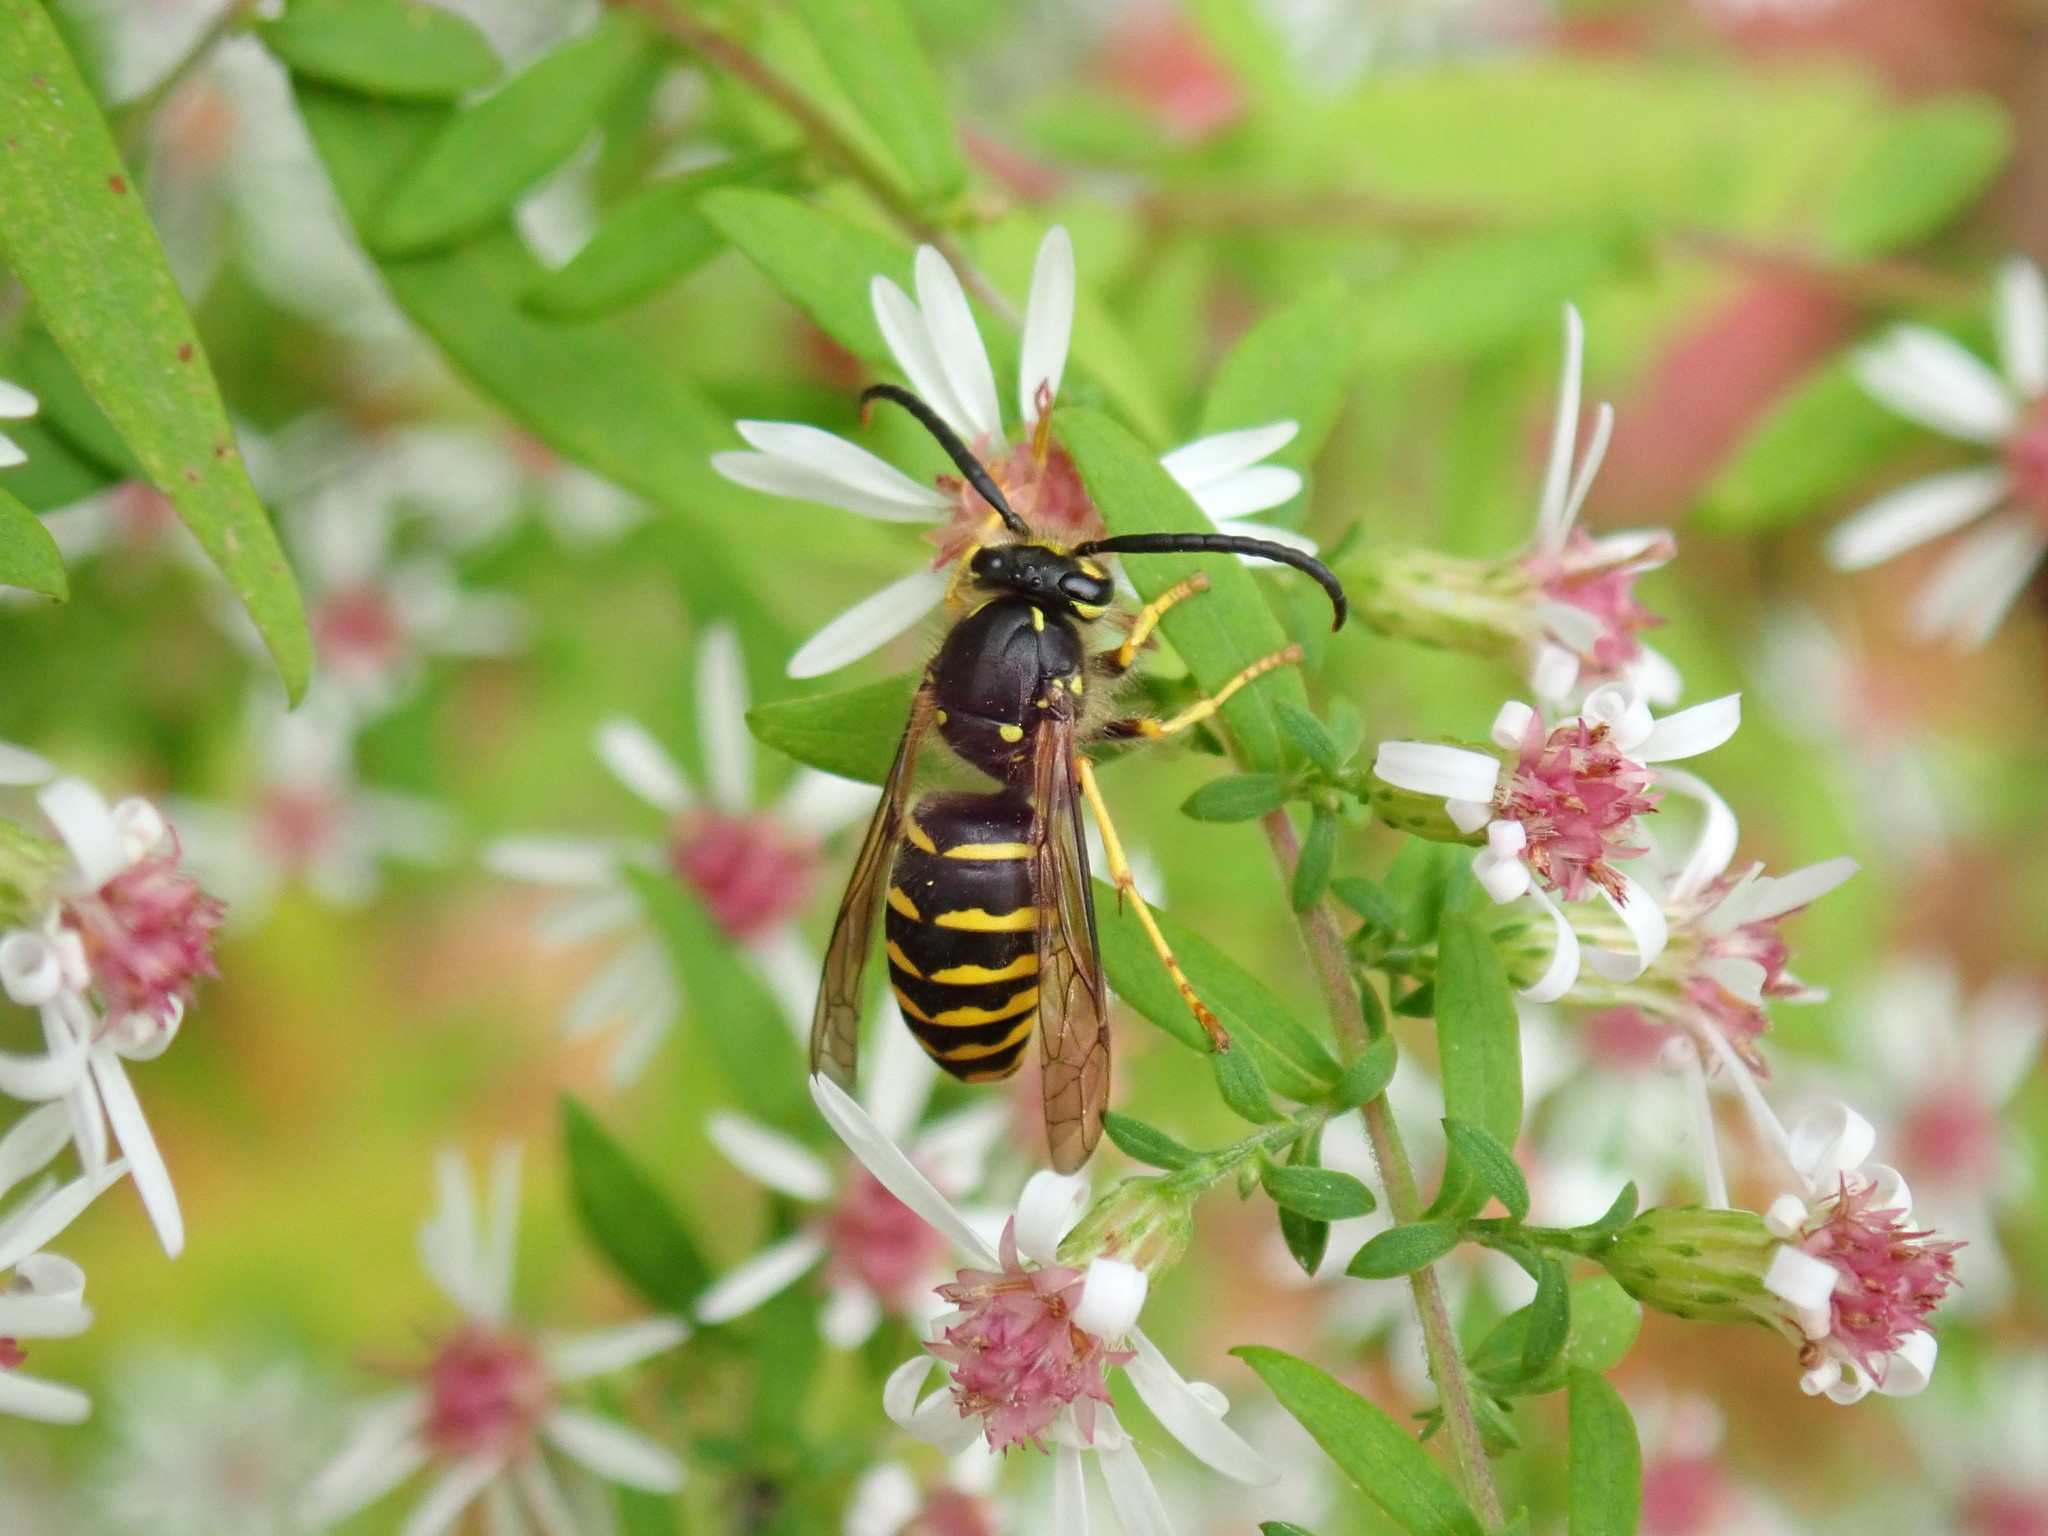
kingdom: Animalia
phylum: Arthropoda
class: Insecta
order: Hymenoptera
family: Vespidae
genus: Dolichovespula
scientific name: Dolichovespula arenaria
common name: Aerial yellowjacket
